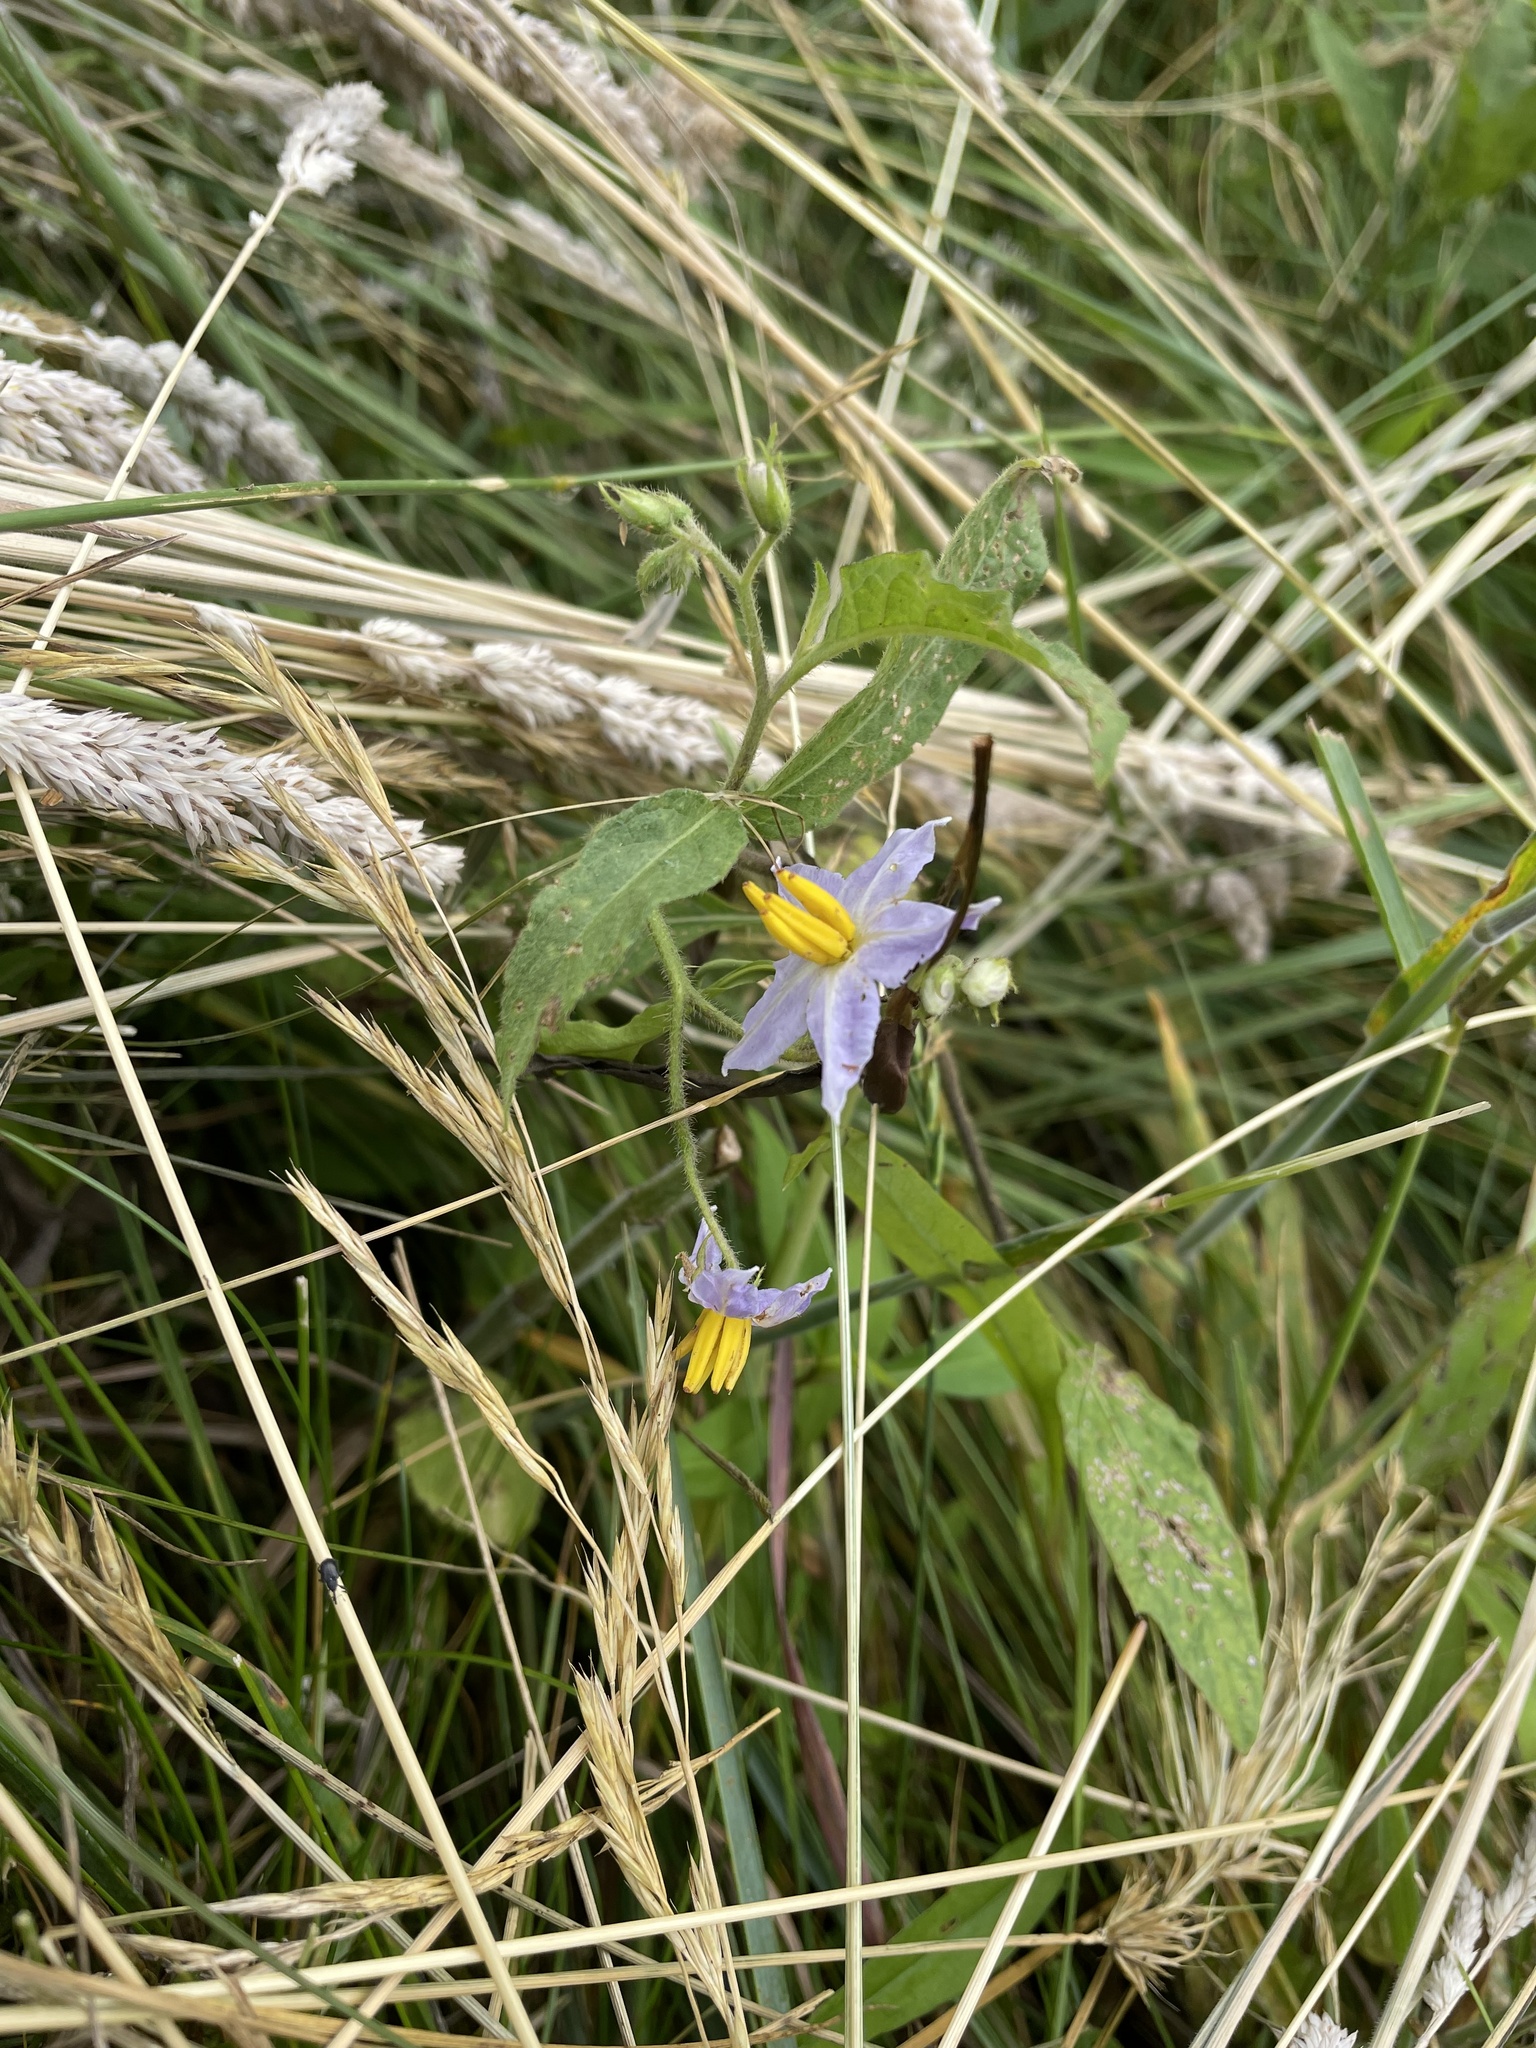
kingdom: Plantae
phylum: Tracheophyta
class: Magnoliopsida
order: Solanales
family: Solanaceae
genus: Solanum
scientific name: Solanum carolinense
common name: Horse-nettle
